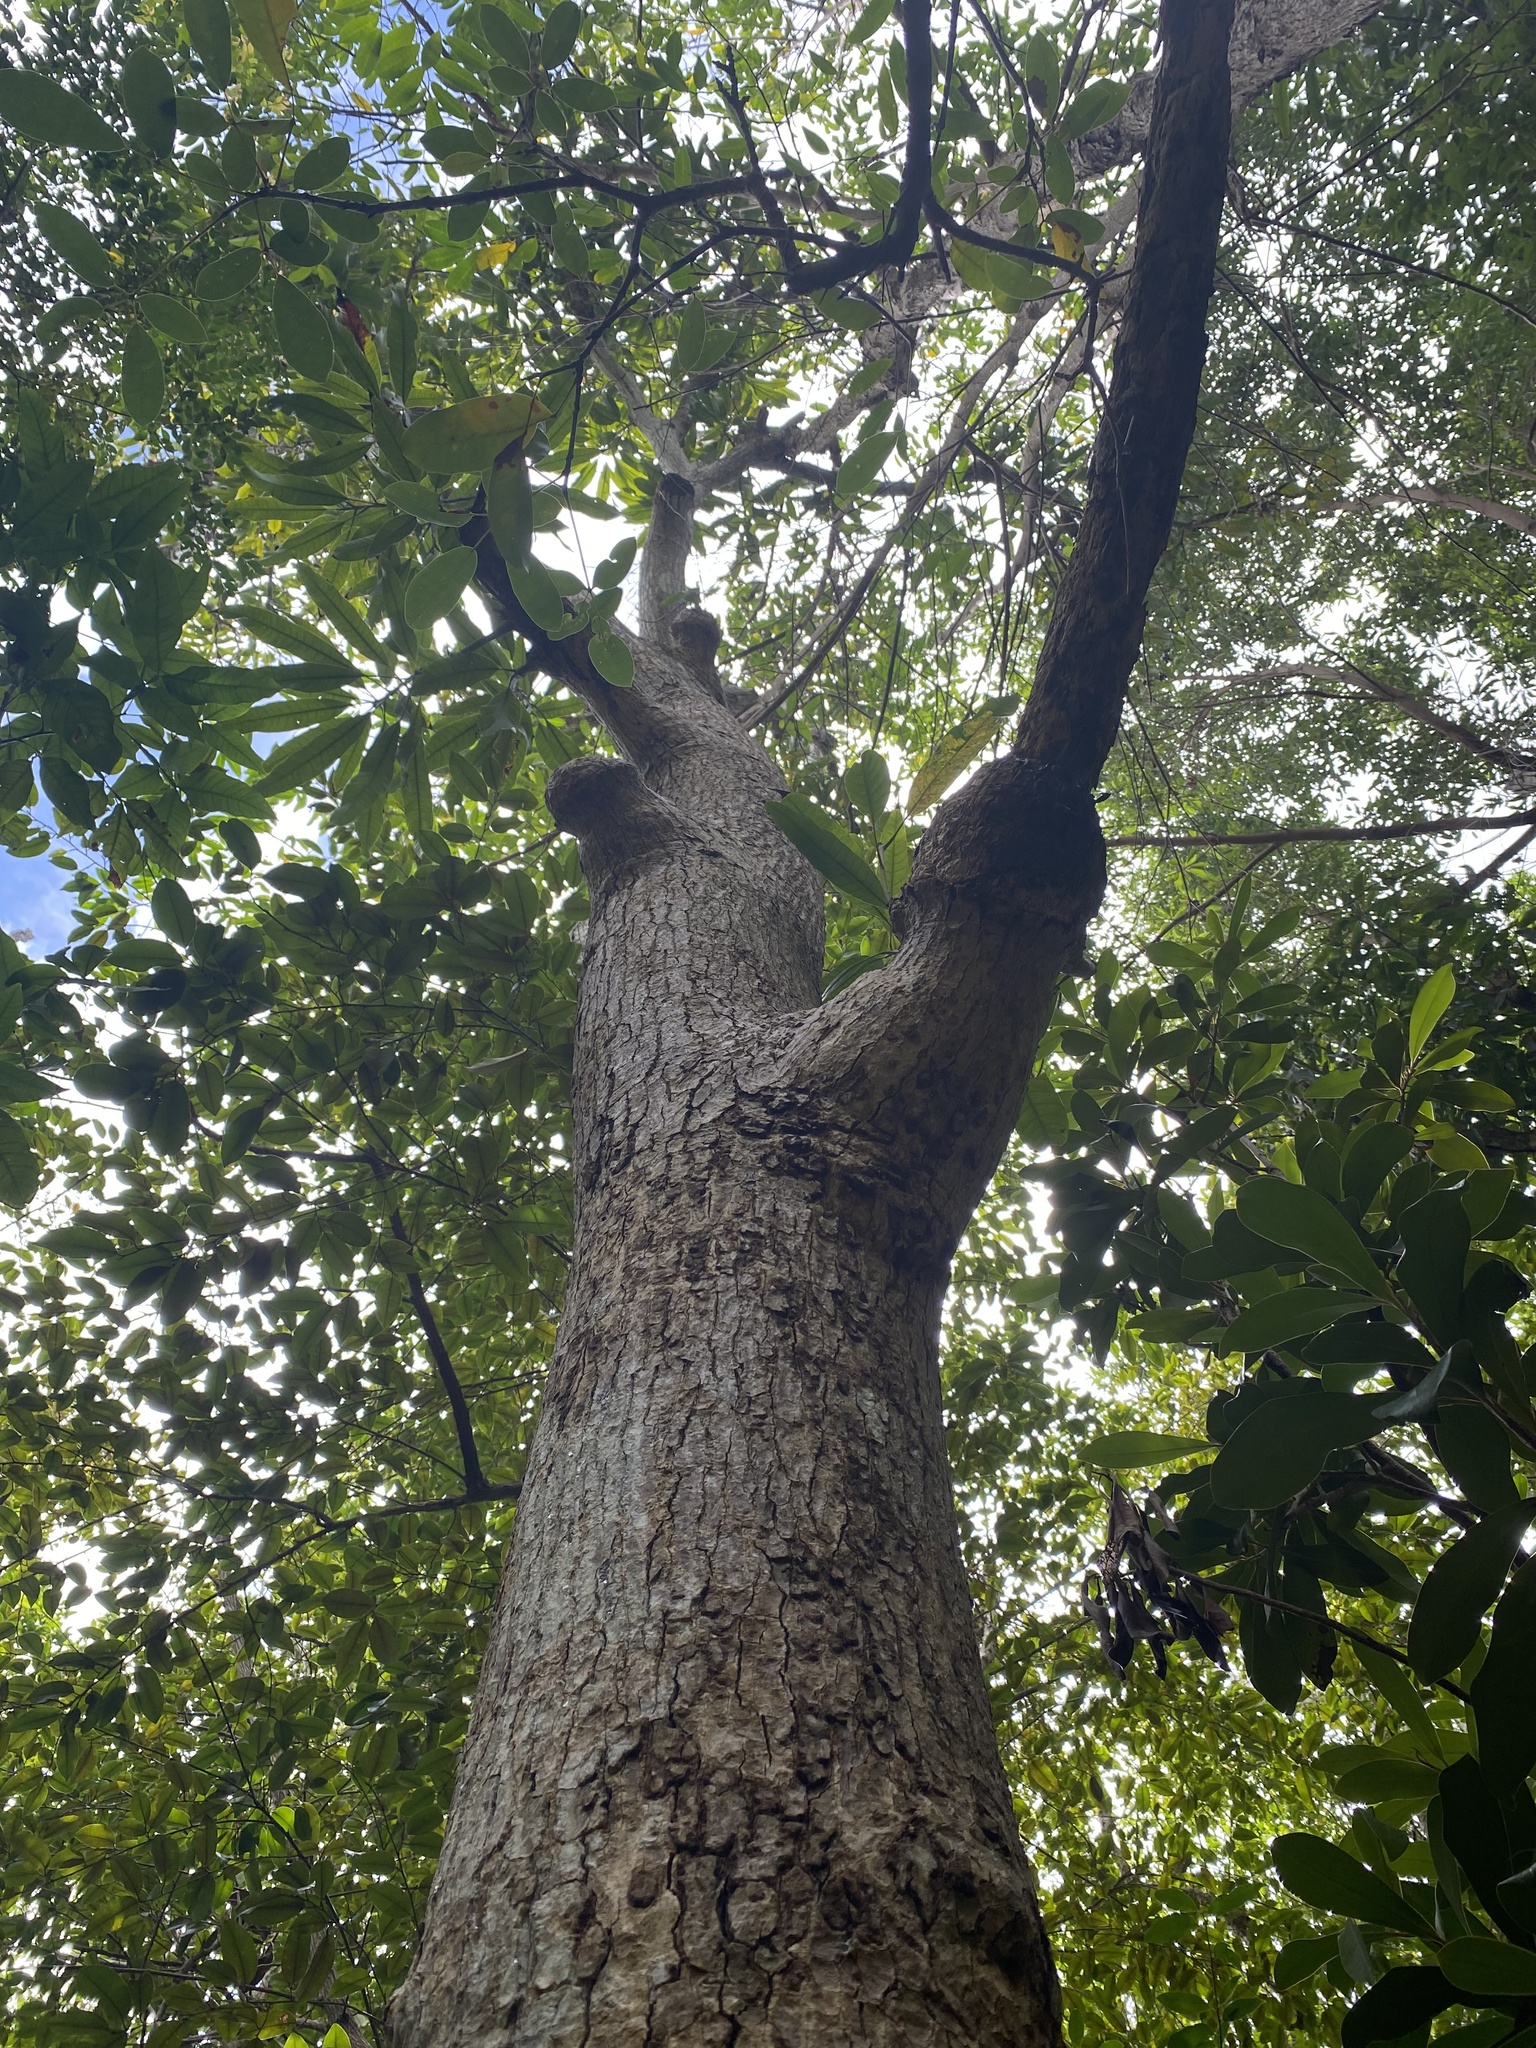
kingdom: Plantae
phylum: Tracheophyta
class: Magnoliopsida
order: Sapindales
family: Anacardiaceae
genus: Mangifera
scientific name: Mangifera indica
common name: Mango
